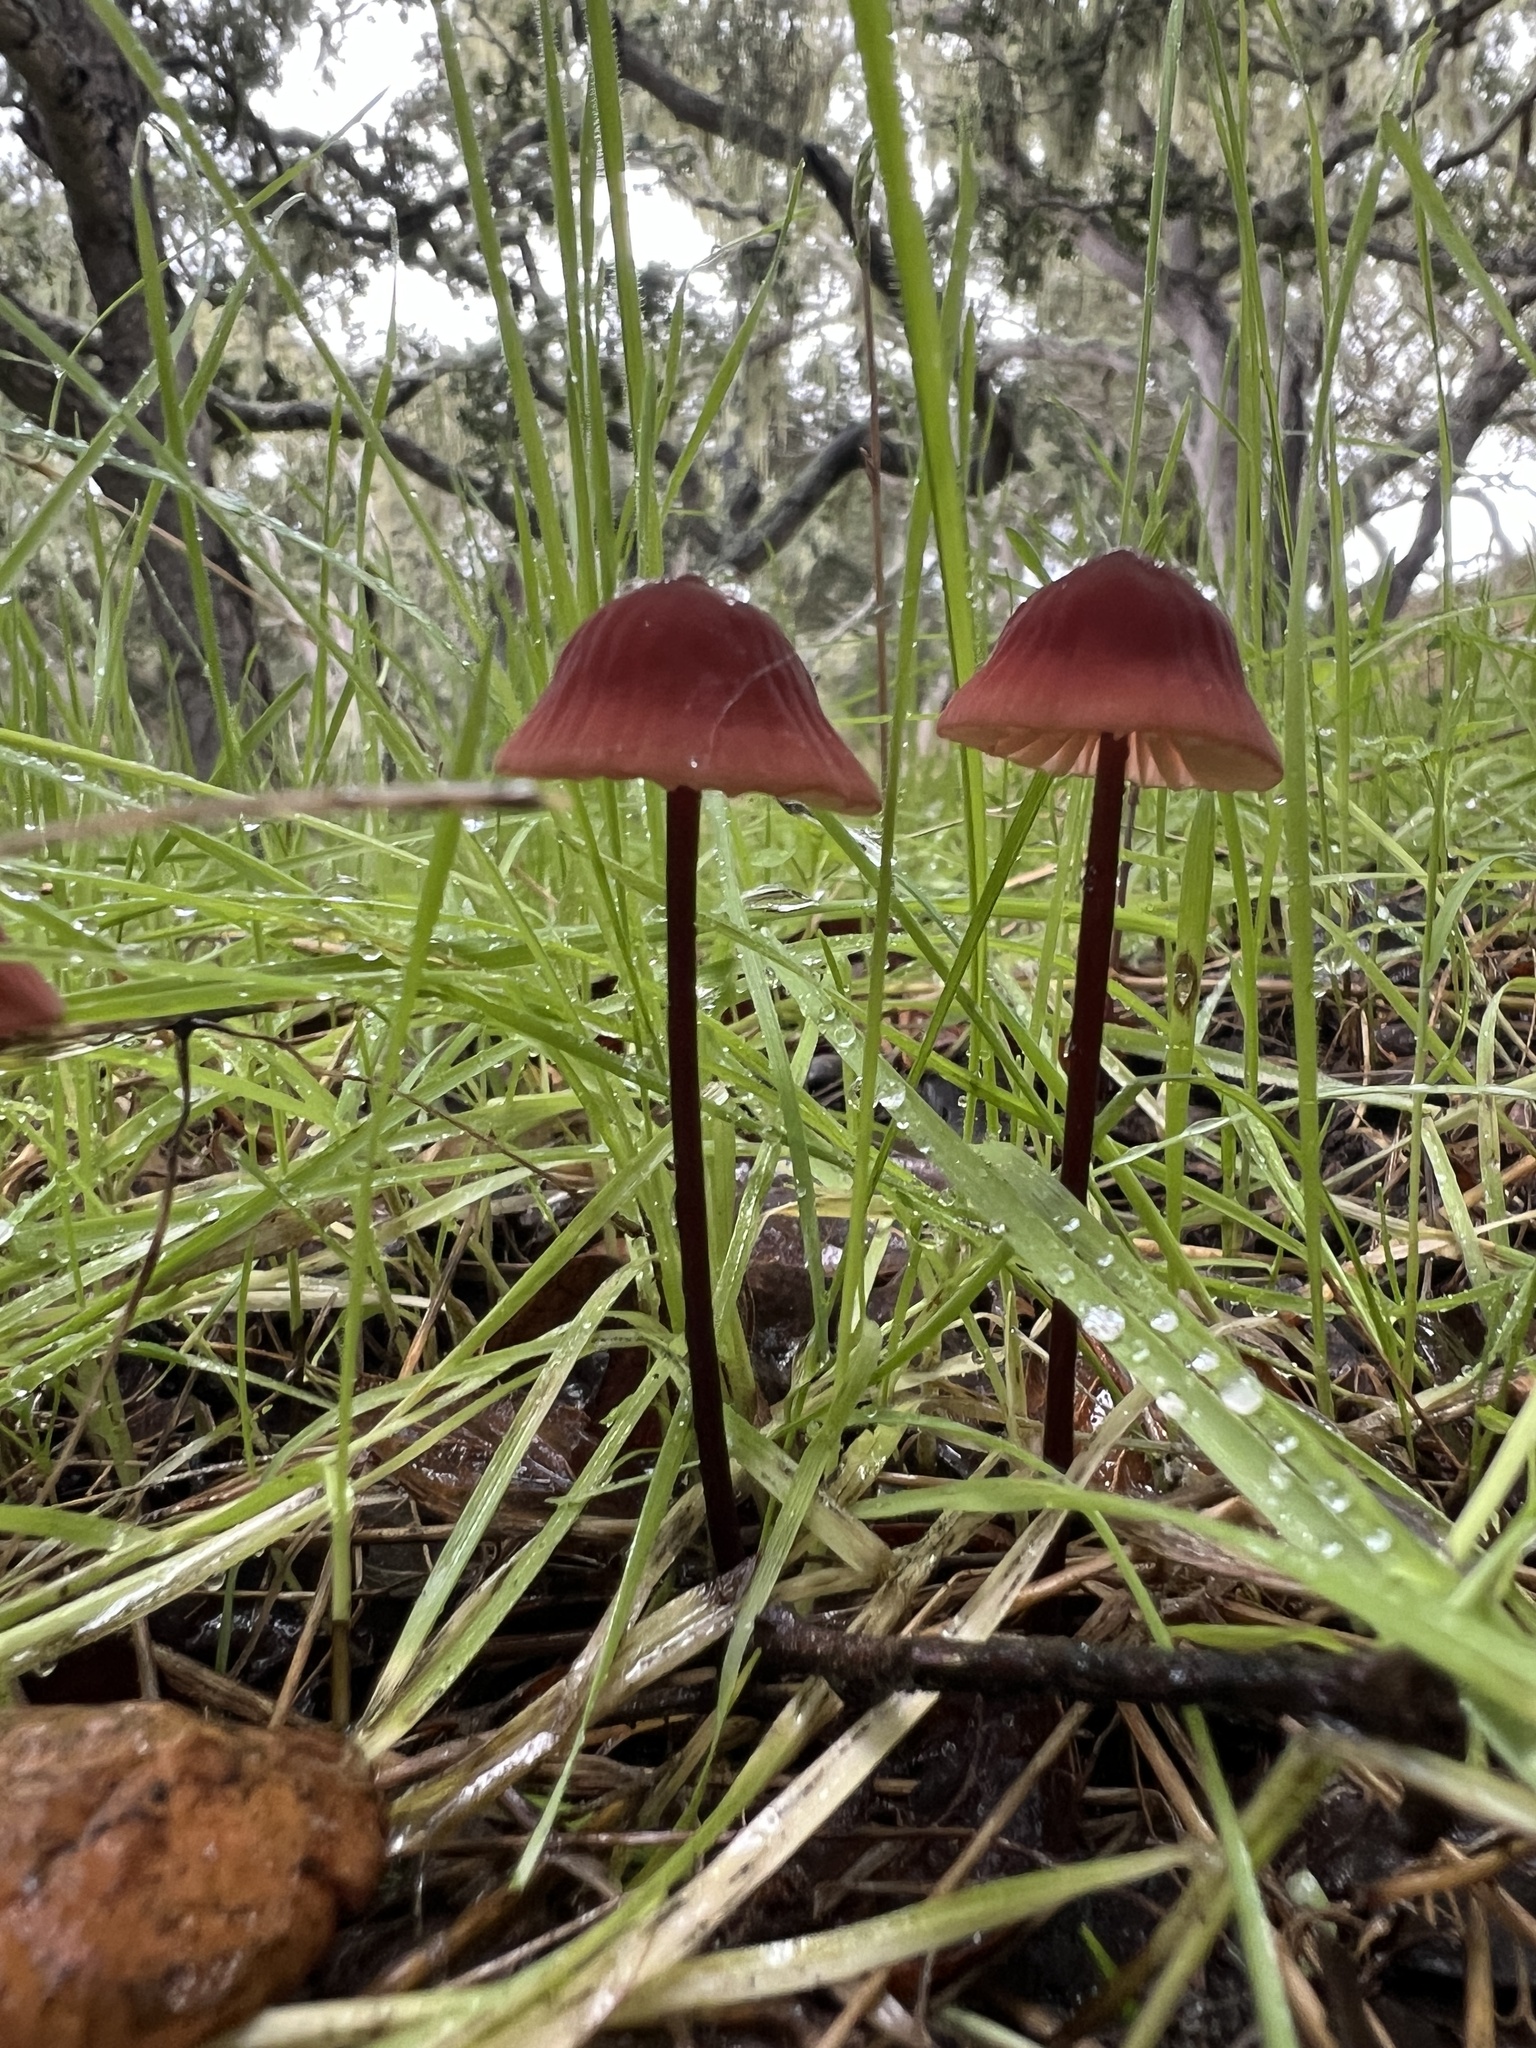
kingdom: Fungi
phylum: Basidiomycota
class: Agaricomycetes
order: Agaricales
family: Marasmiaceae
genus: Marasmius
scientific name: Marasmius plicatulus
